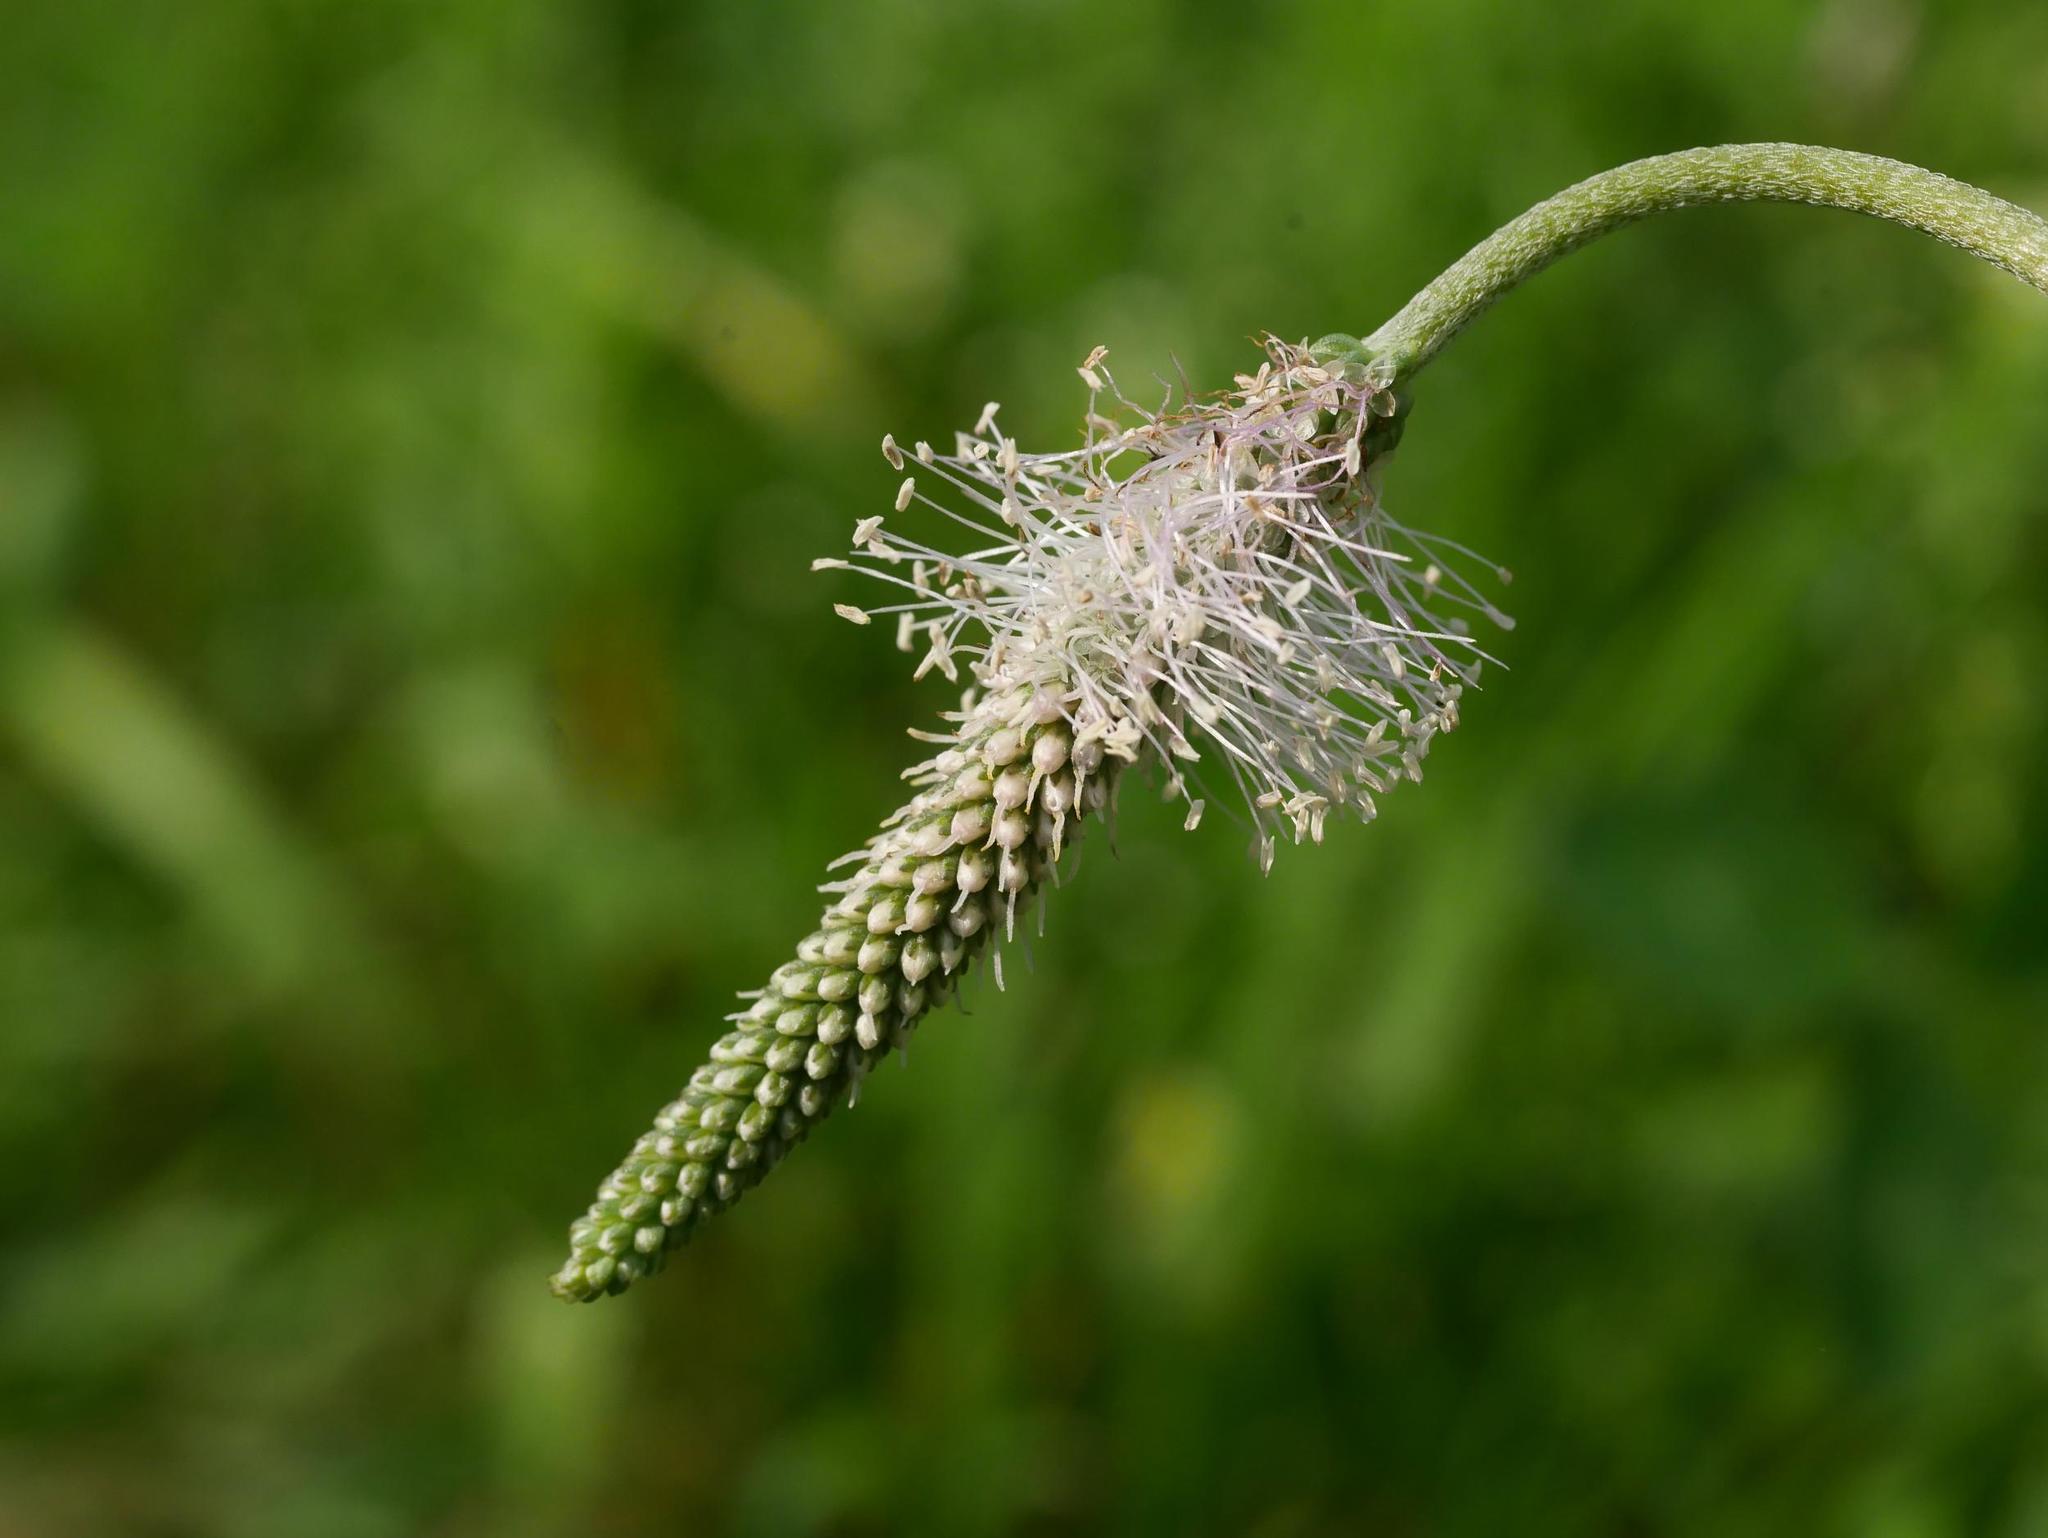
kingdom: Plantae
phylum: Tracheophyta
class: Magnoliopsida
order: Lamiales
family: Plantaginaceae
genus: Plantago
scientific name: Plantago media
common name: Hoary plantain
